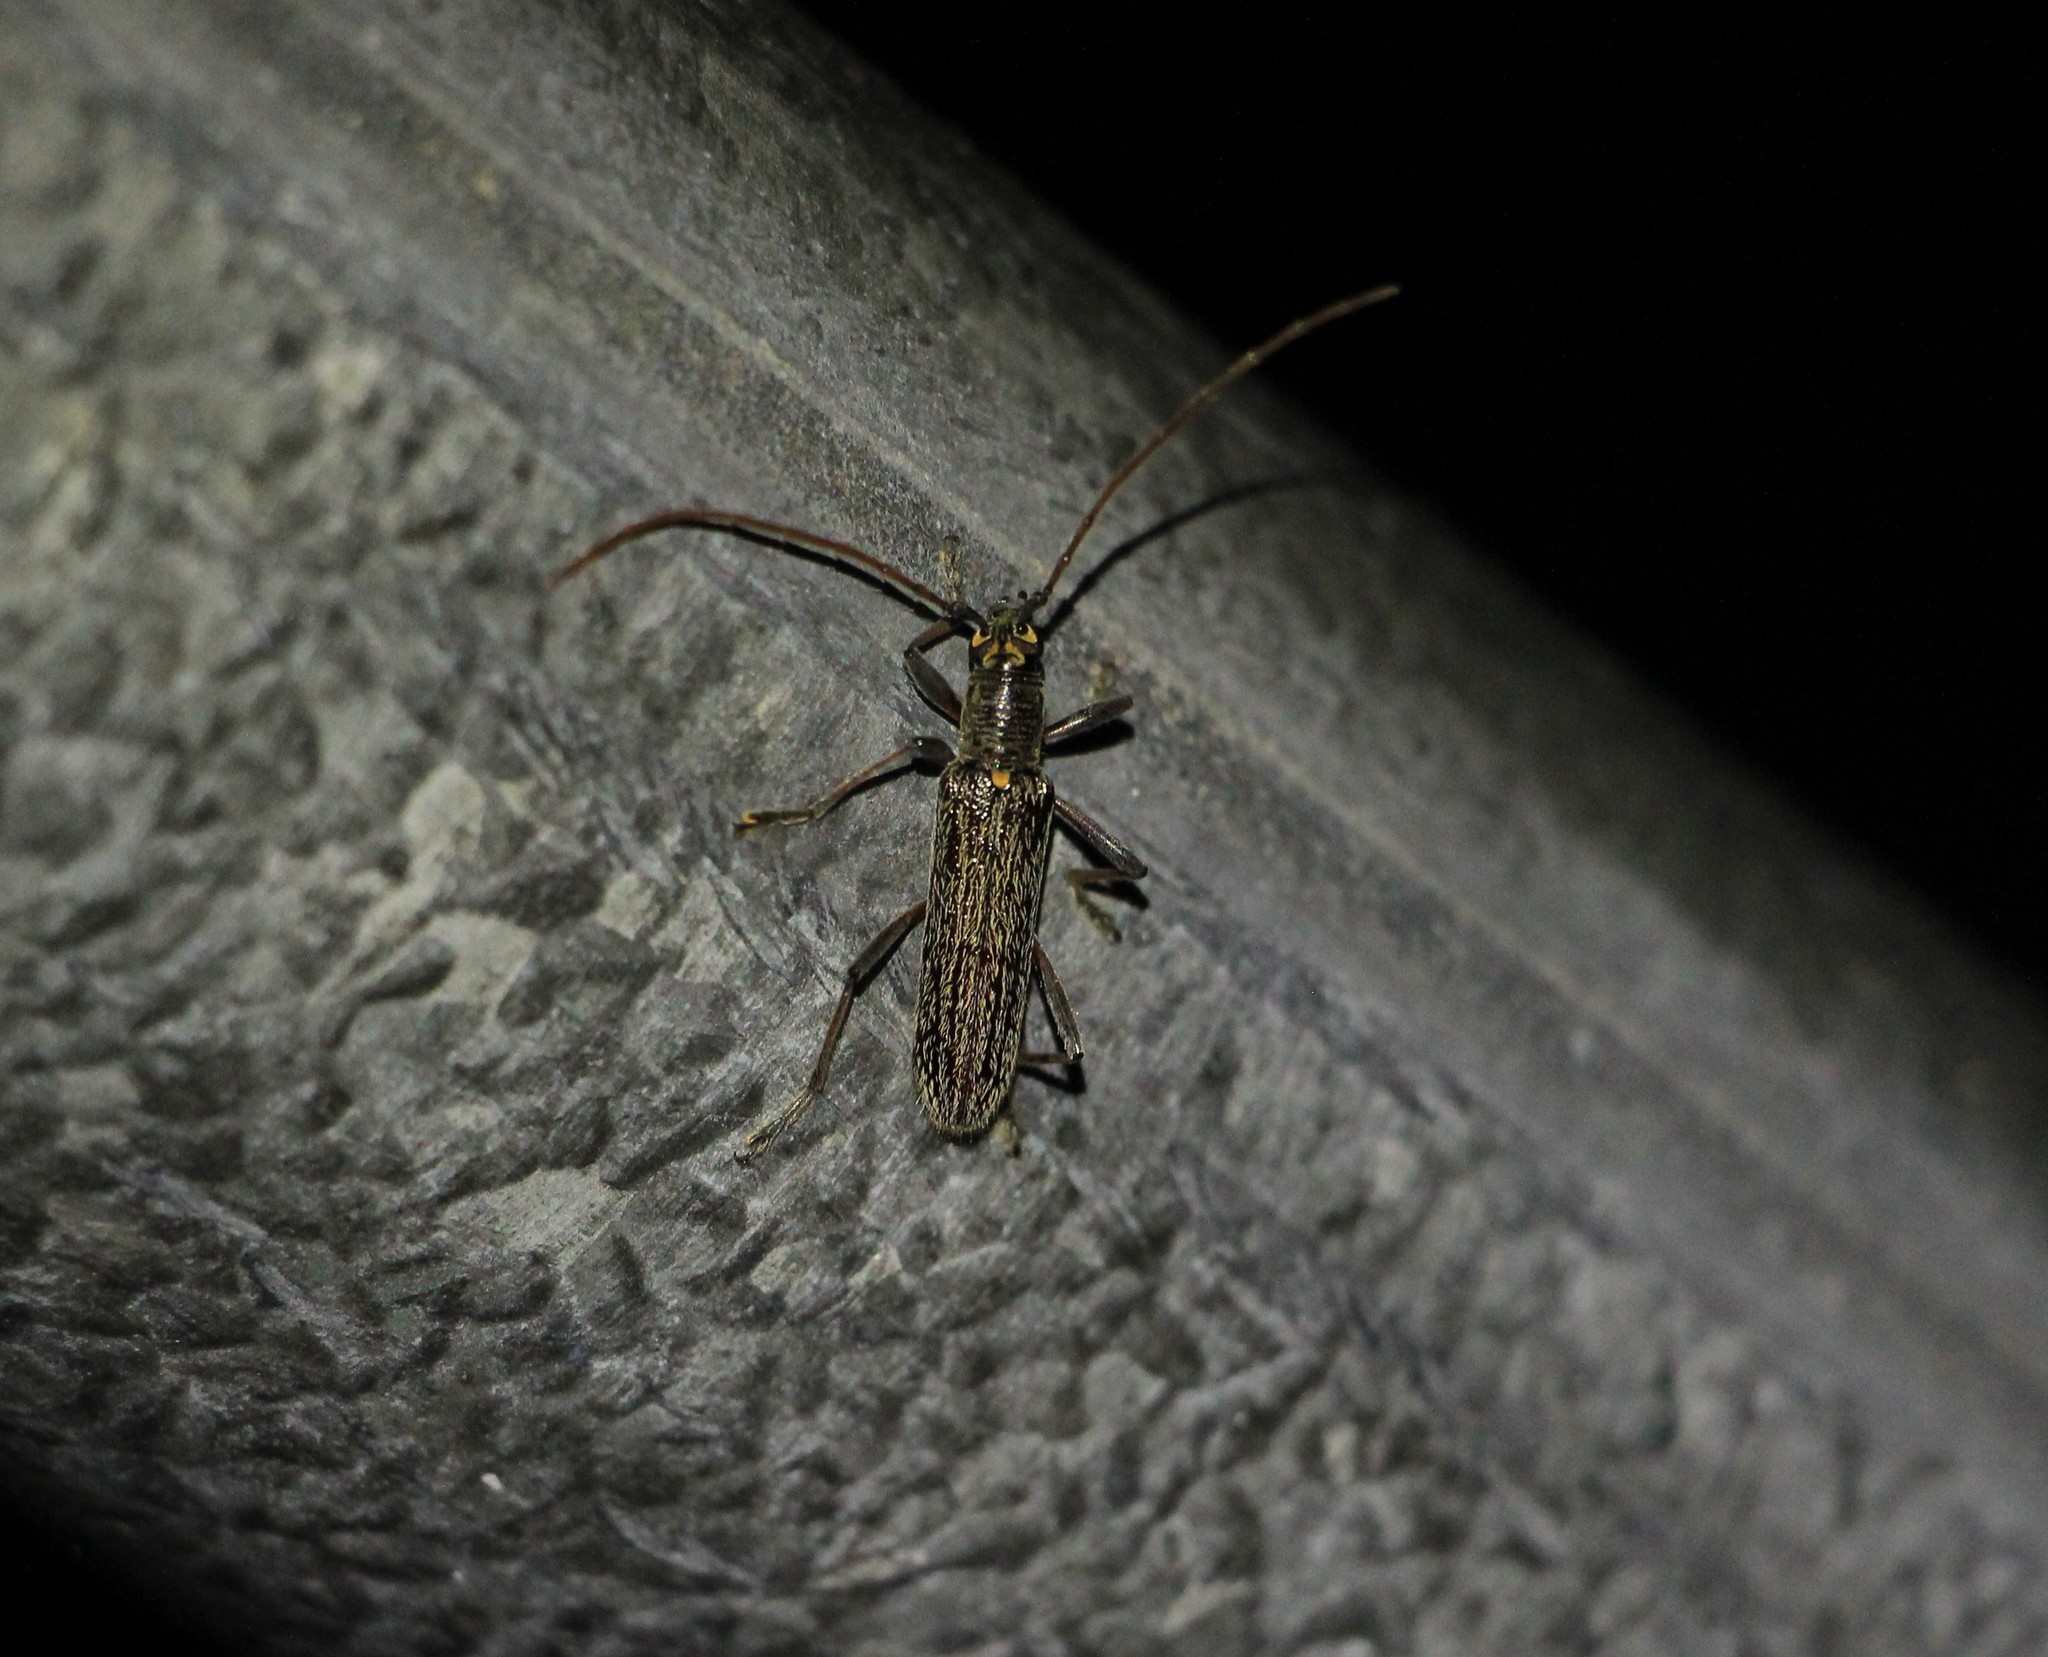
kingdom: Animalia
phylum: Arthropoda
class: Insecta
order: Coleoptera
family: Cerambycidae
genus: Oemona
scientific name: Oemona hirta
